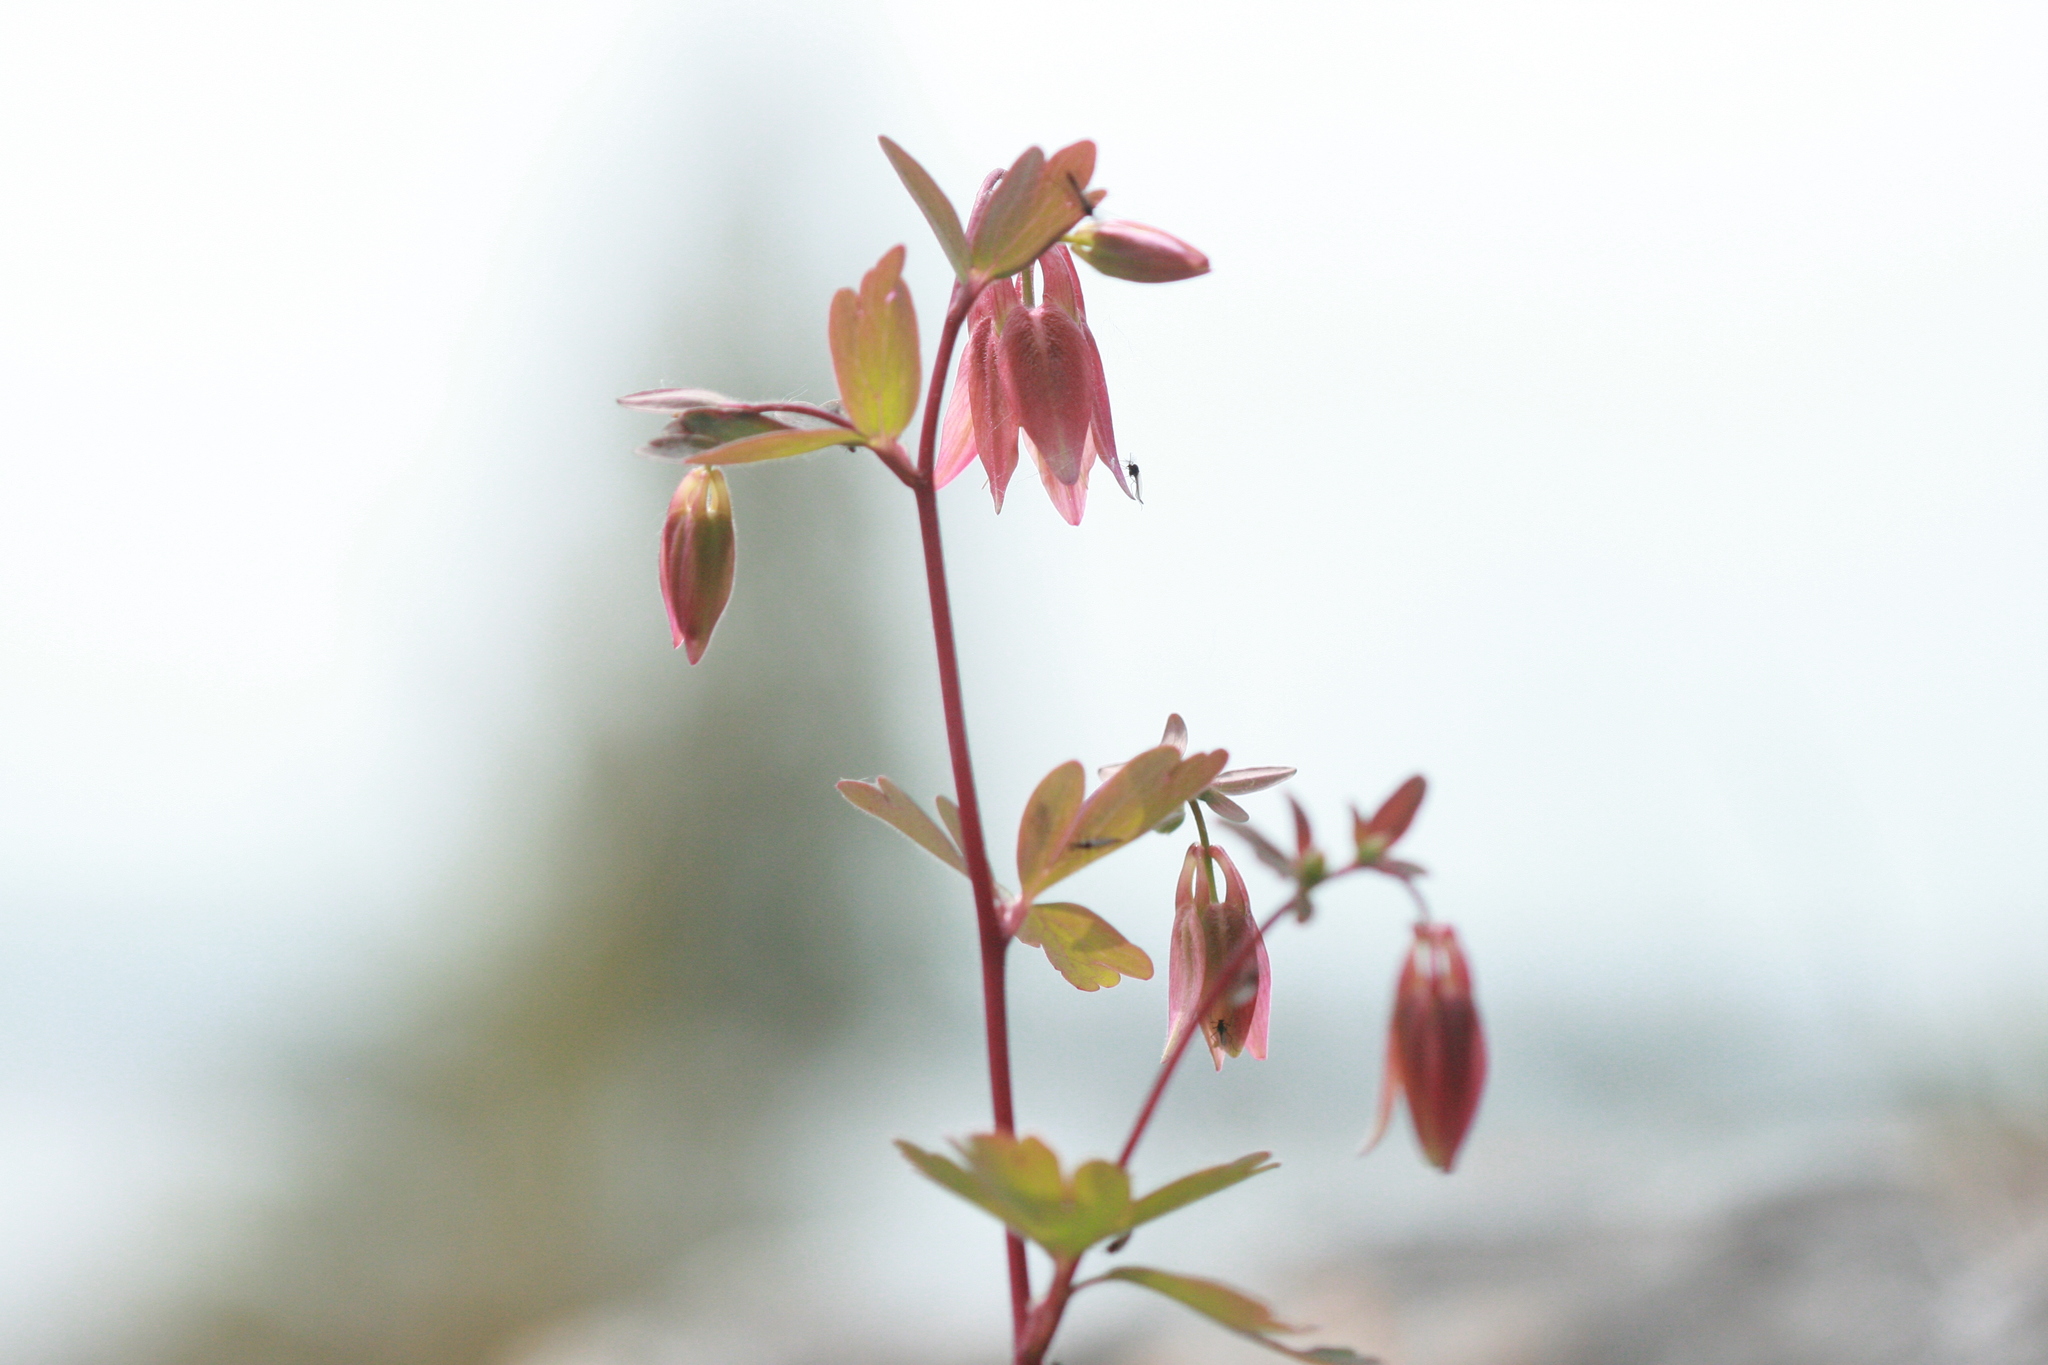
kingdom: Plantae
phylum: Tracheophyta
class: Magnoliopsida
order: Ranunculales
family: Ranunculaceae
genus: Aquilegia
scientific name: Aquilegia canadensis
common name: American columbine
